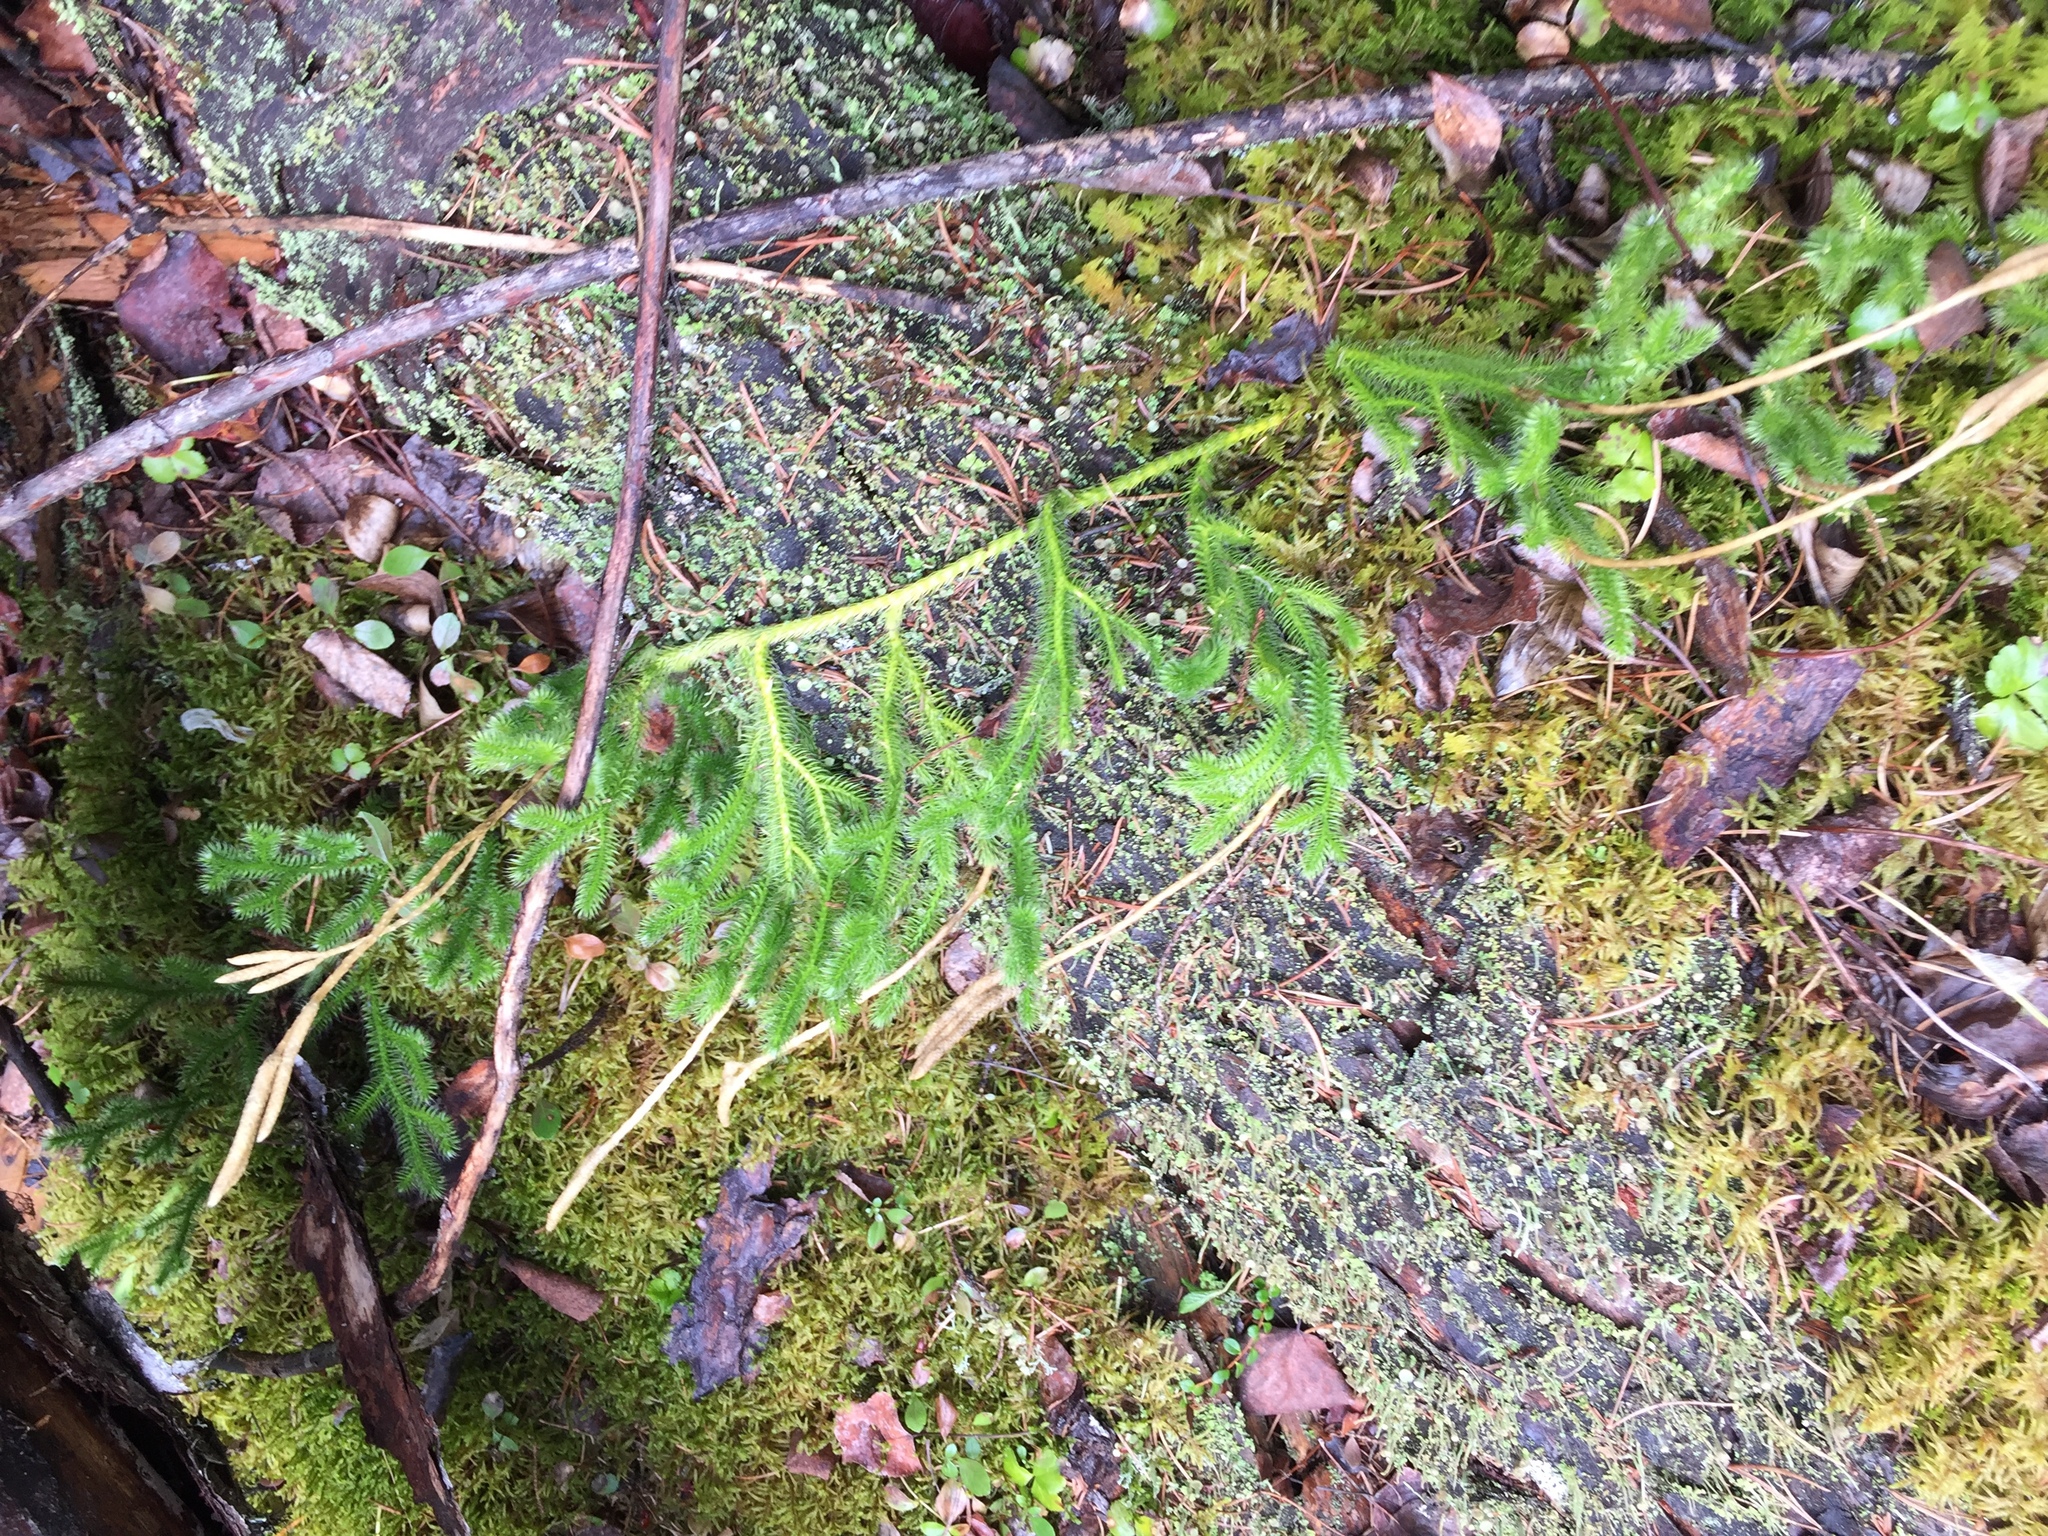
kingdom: Plantae
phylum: Tracheophyta
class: Lycopodiopsida
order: Lycopodiales
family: Lycopodiaceae
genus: Lycopodium
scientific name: Lycopodium clavatum
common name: Stag's-horn clubmoss
